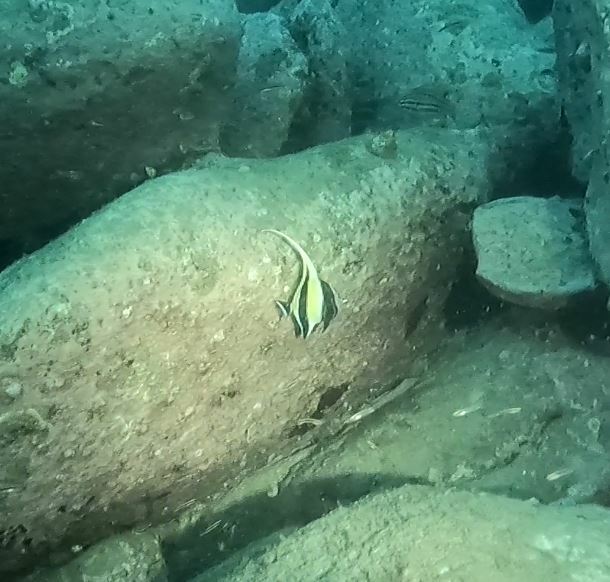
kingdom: Animalia
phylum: Chordata
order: Perciformes
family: Zanclidae
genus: Zanclus
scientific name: Zanclus cornutus
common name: Moorish idol
